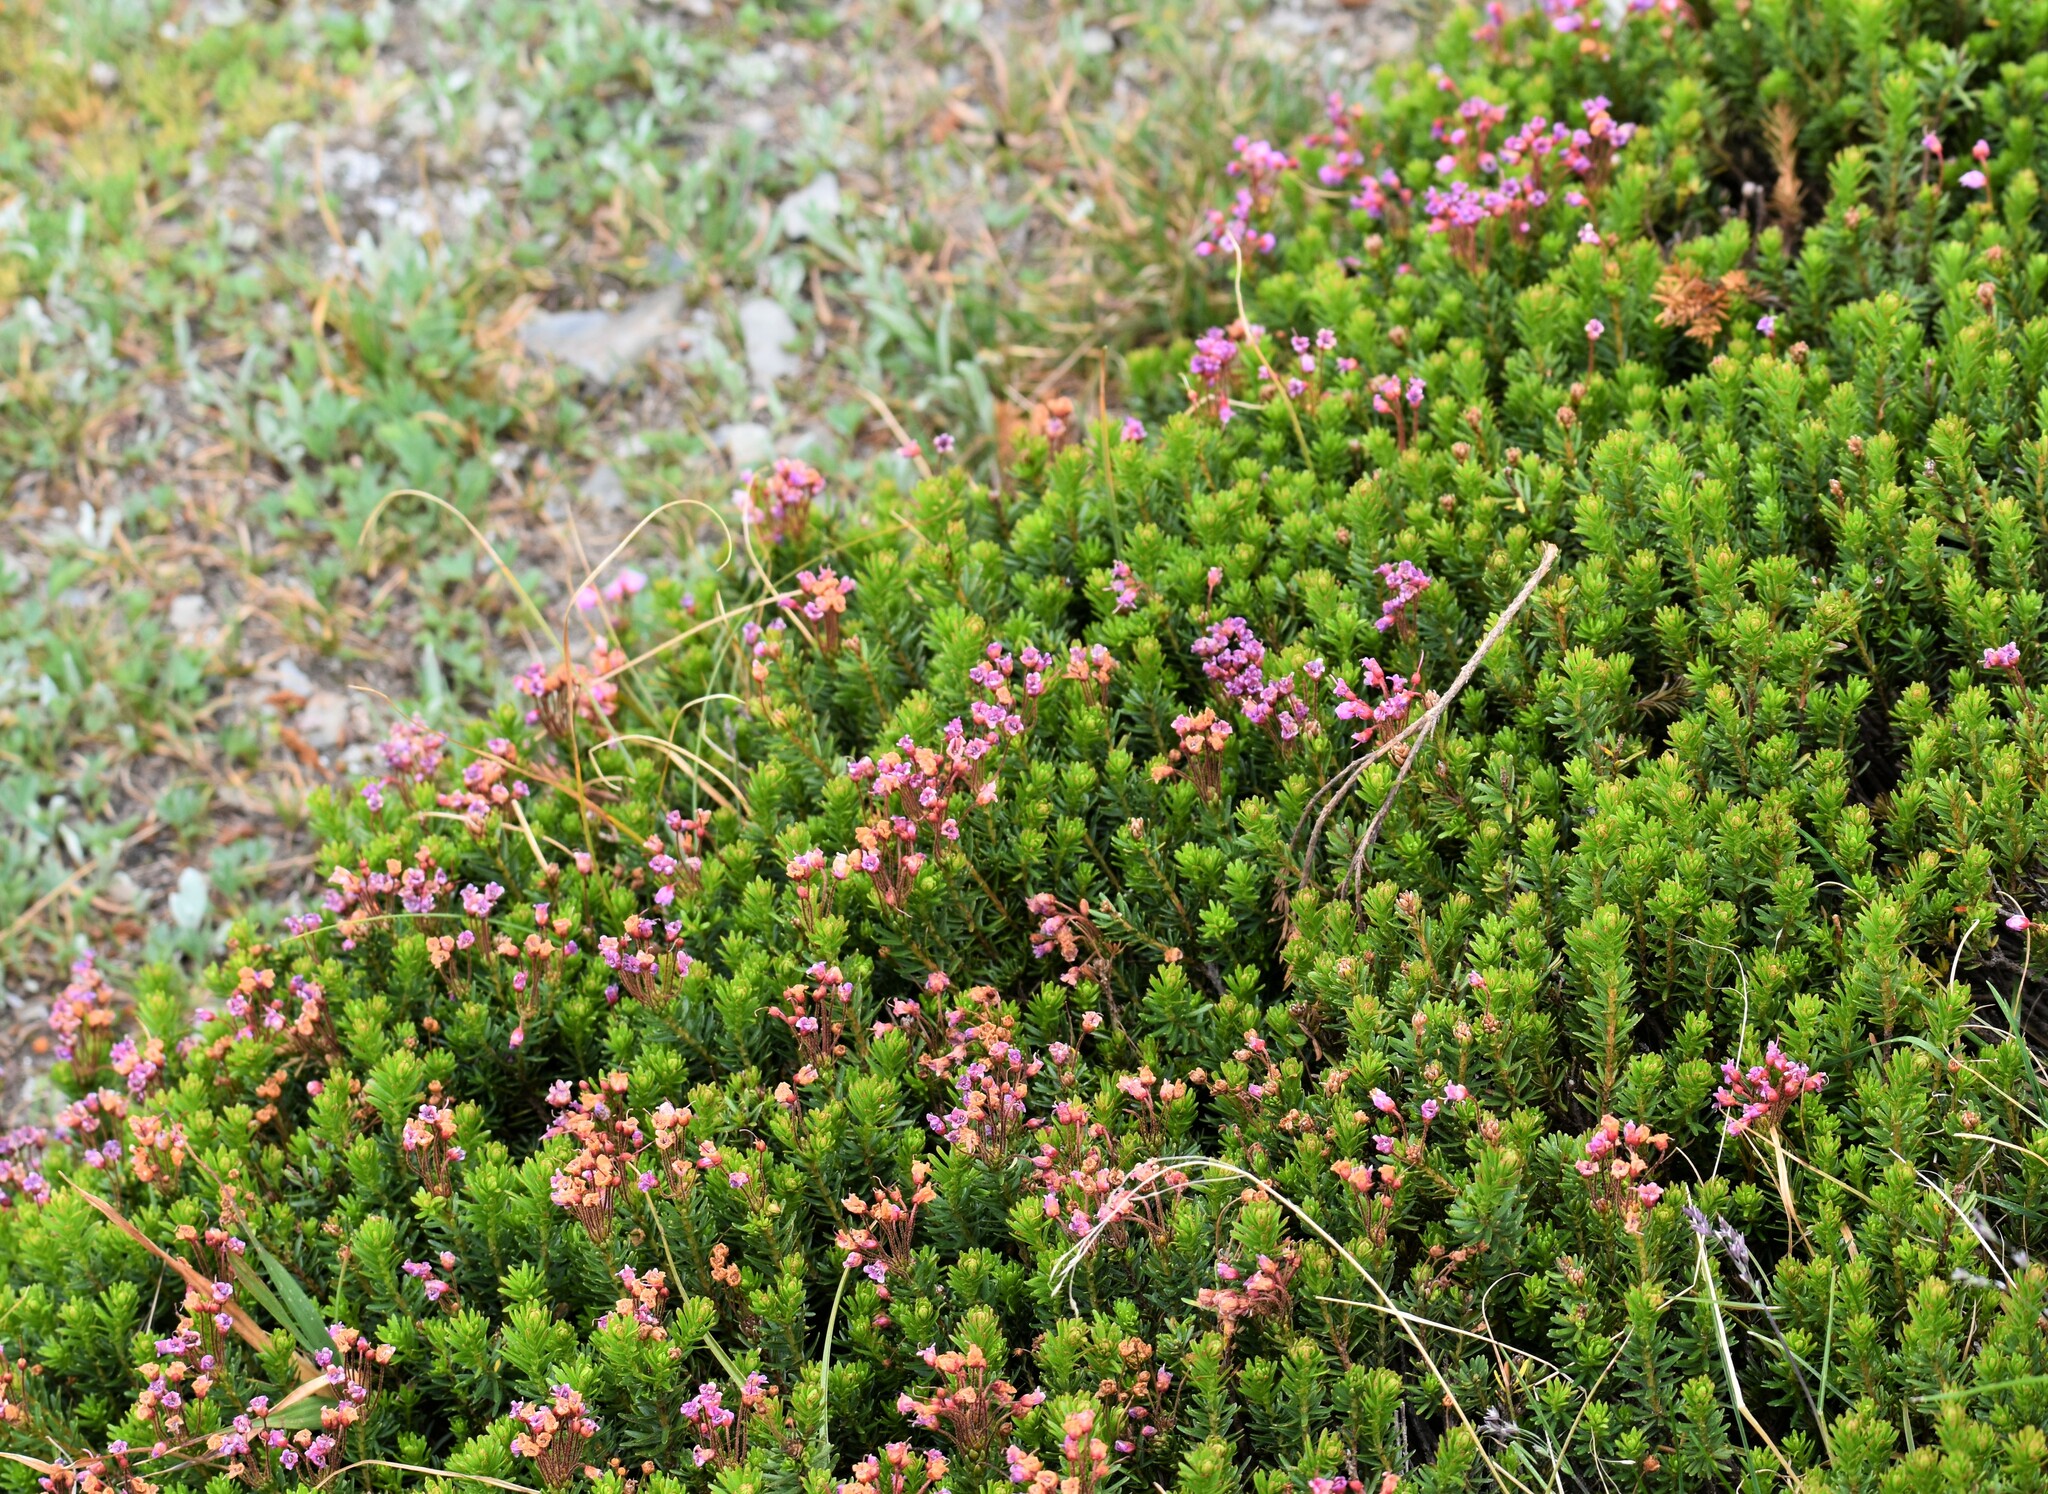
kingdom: Plantae
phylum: Tracheophyta
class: Magnoliopsida
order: Ericales
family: Ericaceae
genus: Phyllodoce
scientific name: Phyllodoce empetriformis
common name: Pink mountain heather
